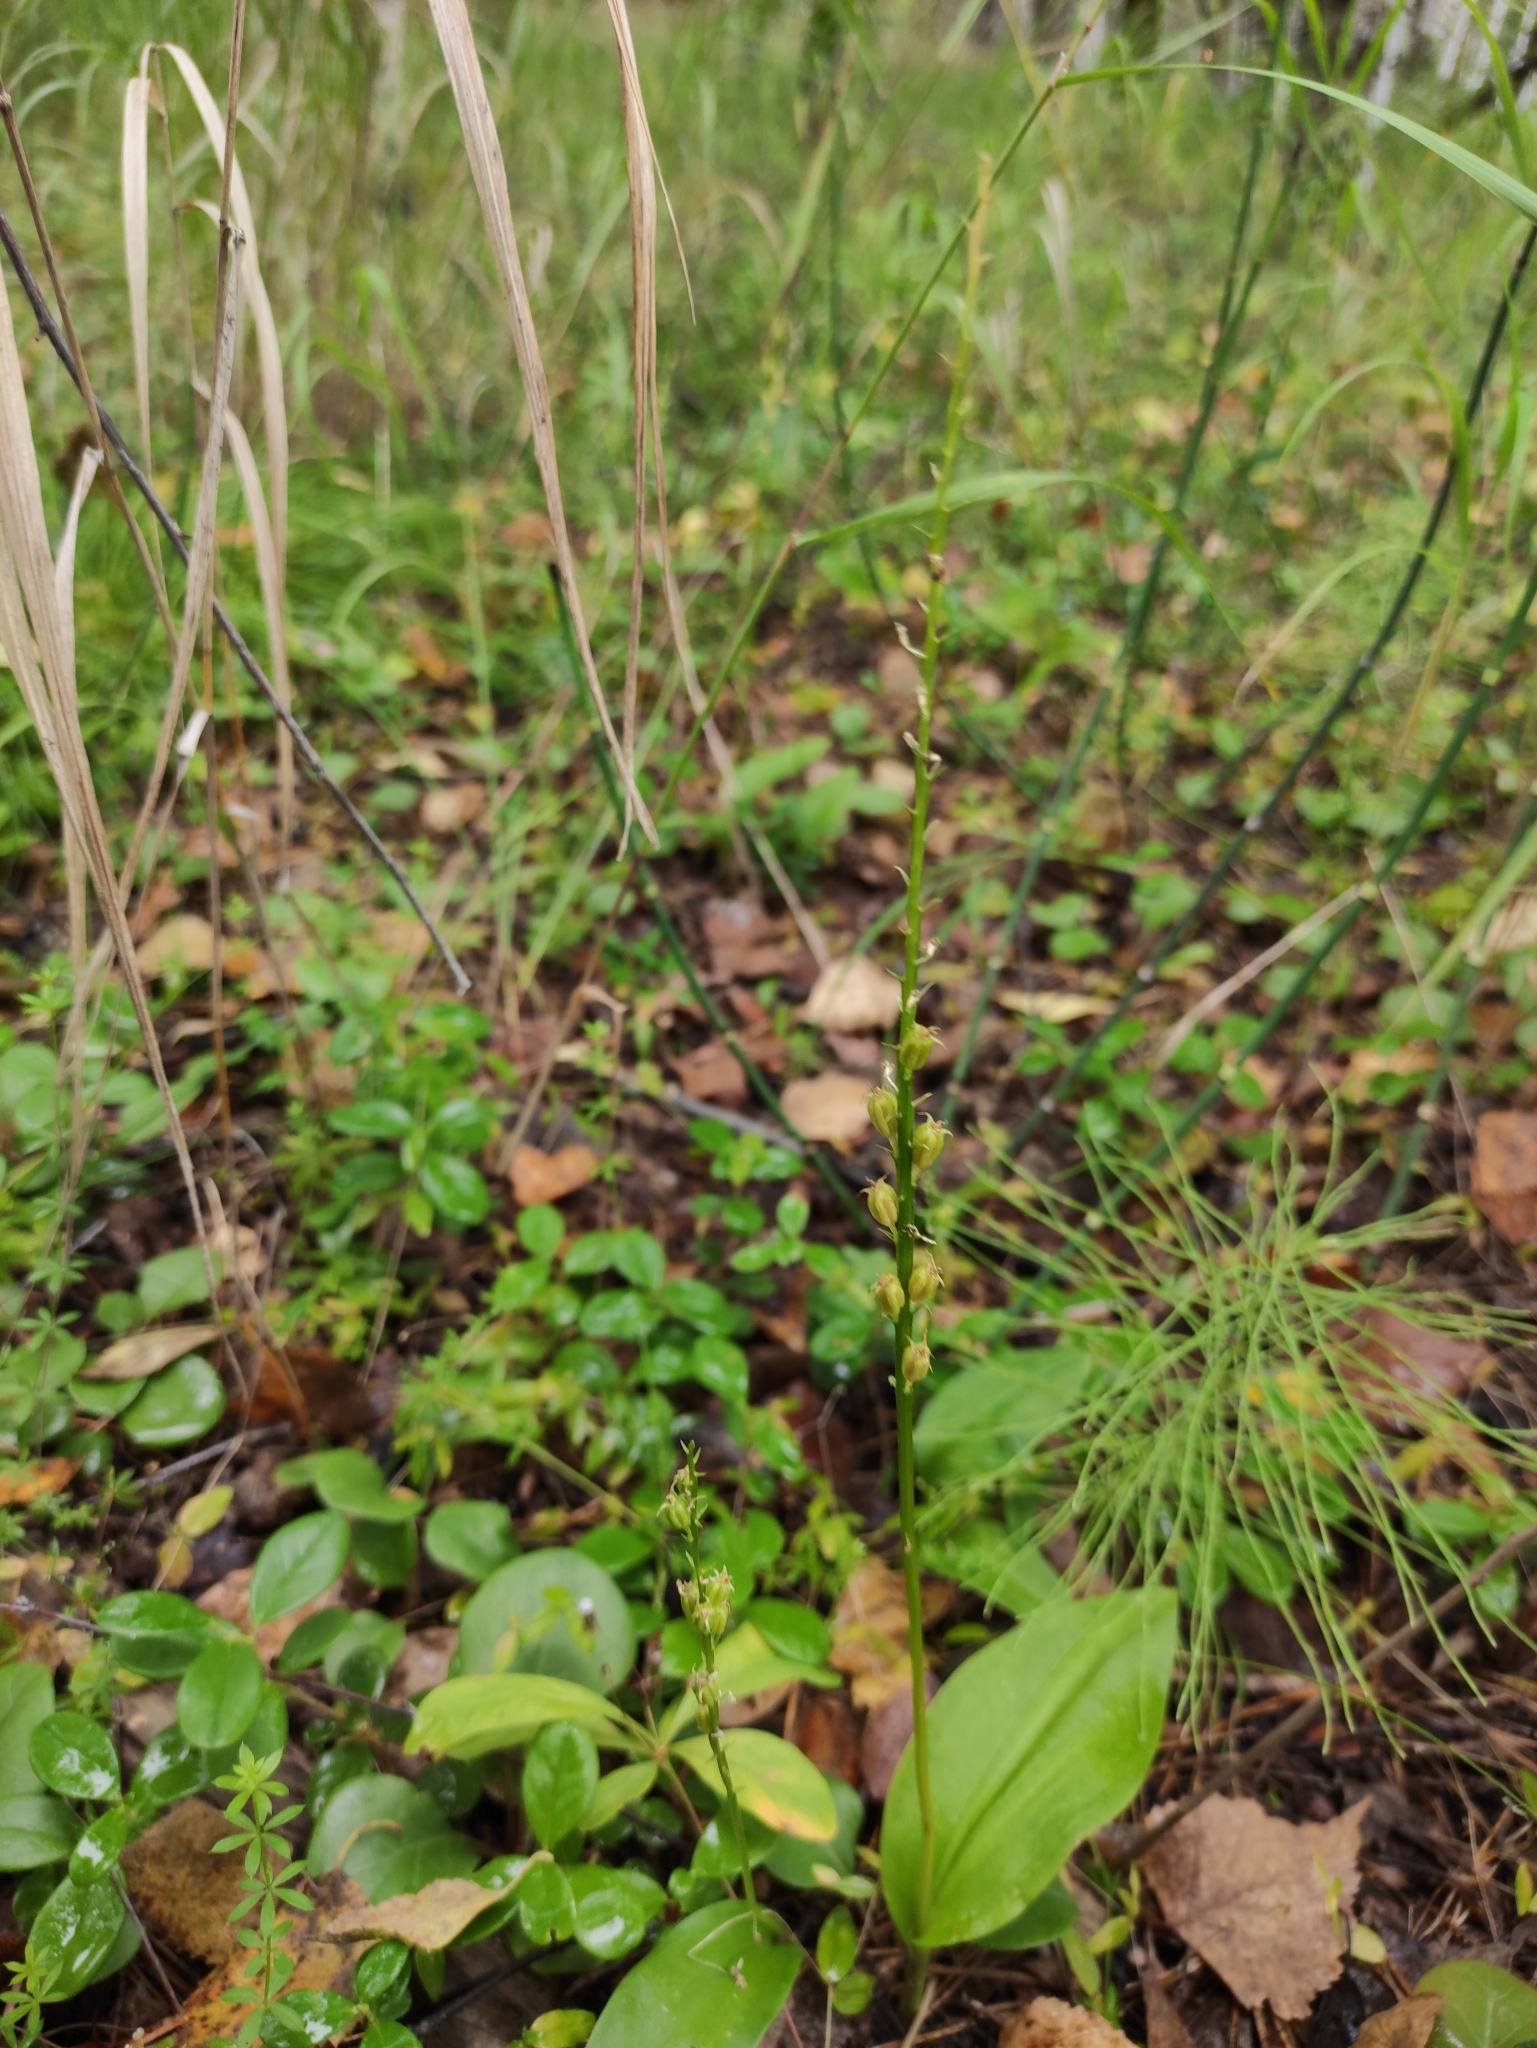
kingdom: Plantae
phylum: Tracheophyta
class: Liliopsida
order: Asparagales
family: Orchidaceae
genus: Malaxis
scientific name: Malaxis monophyllos
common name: White adder's-mouth
